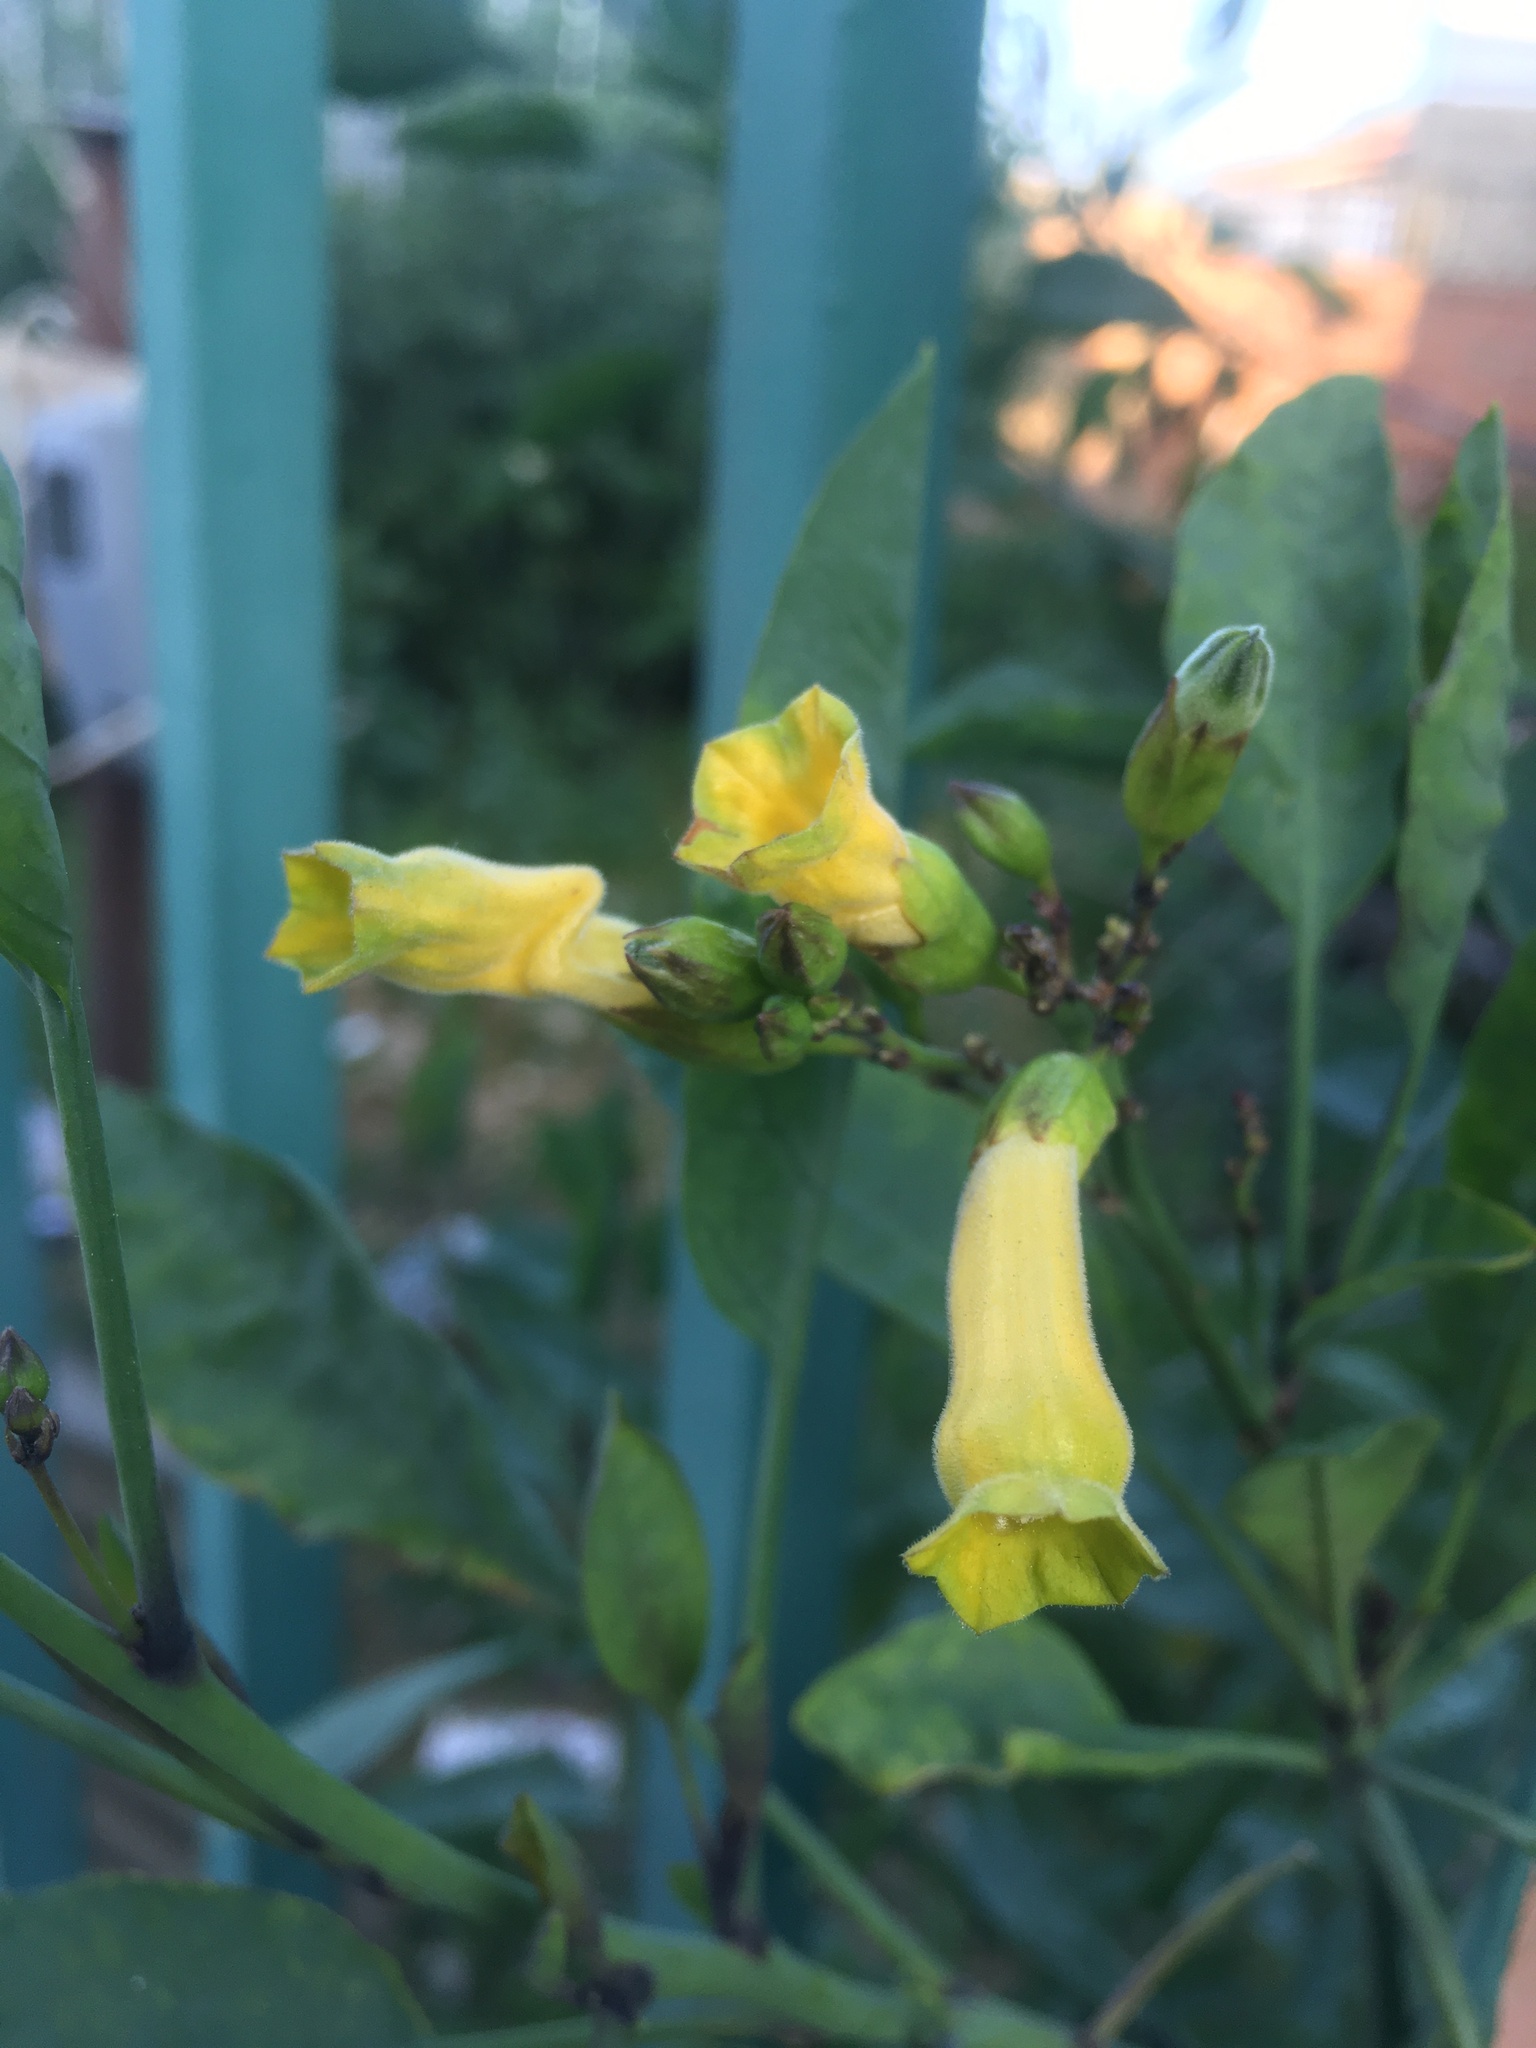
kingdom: Plantae
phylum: Tracheophyta
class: Magnoliopsida
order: Solanales
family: Solanaceae
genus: Nicotiana
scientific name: Nicotiana glauca
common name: Tree tobacco
